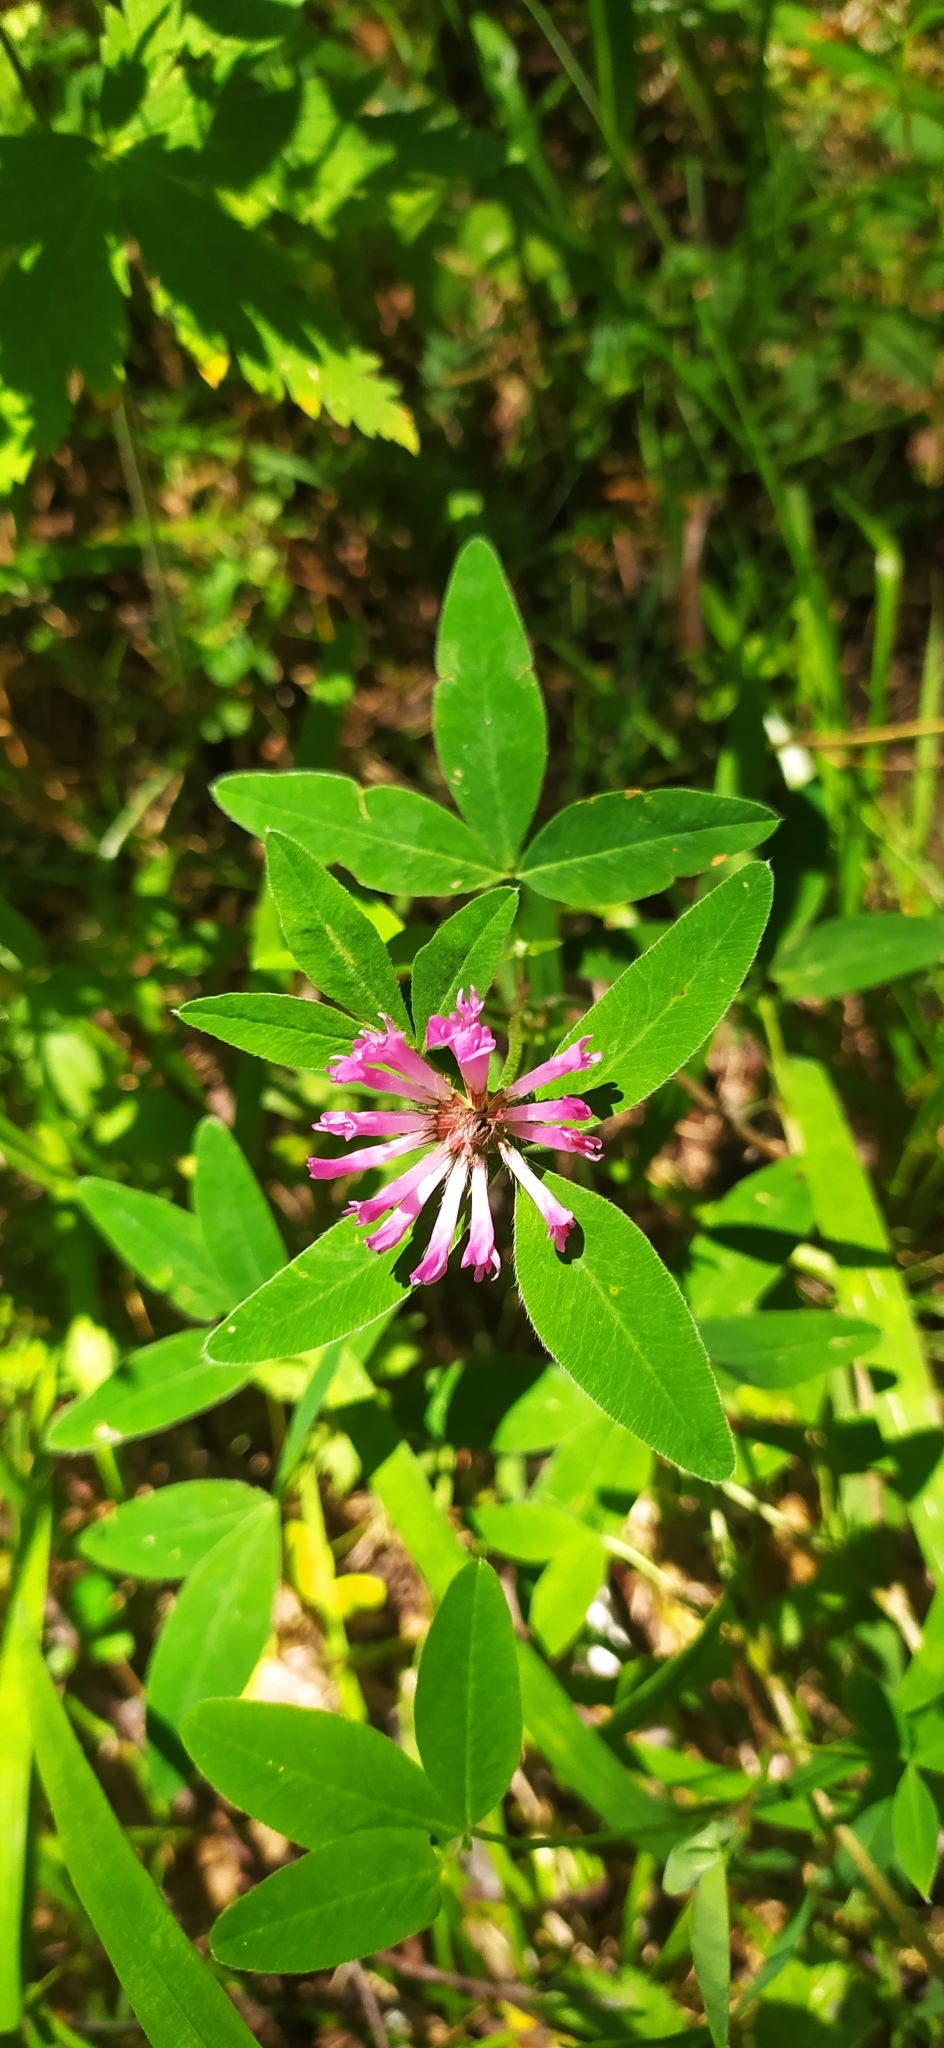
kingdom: Plantae
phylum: Tracheophyta
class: Magnoliopsida
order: Fabales
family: Fabaceae
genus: Trifolium
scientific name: Trifolium medium
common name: Zigzag clover
